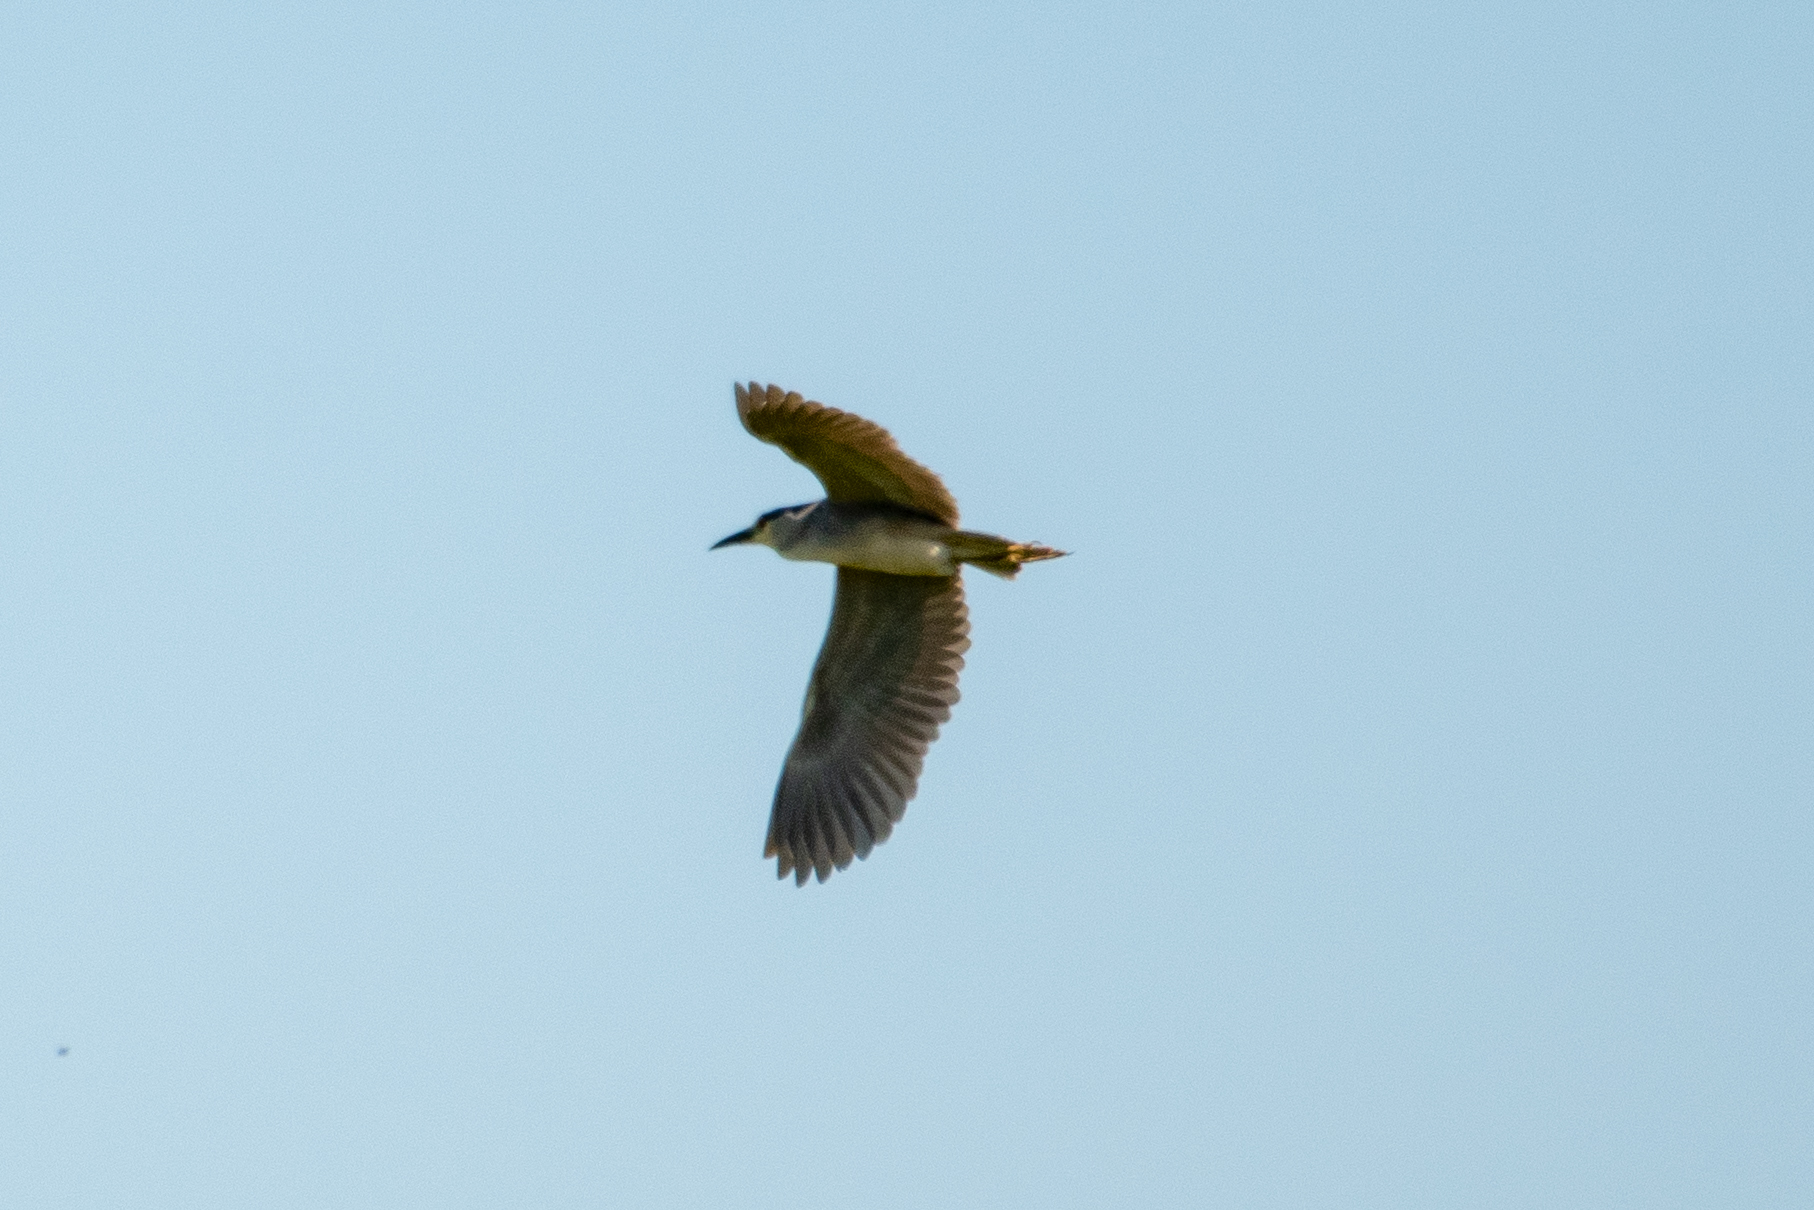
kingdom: Animalia
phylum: Chordata
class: Aves
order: Pelecaniformes
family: Ardeidae
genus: Nycticorax
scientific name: Nycticorax nycticorax
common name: Black-crowned night heron
